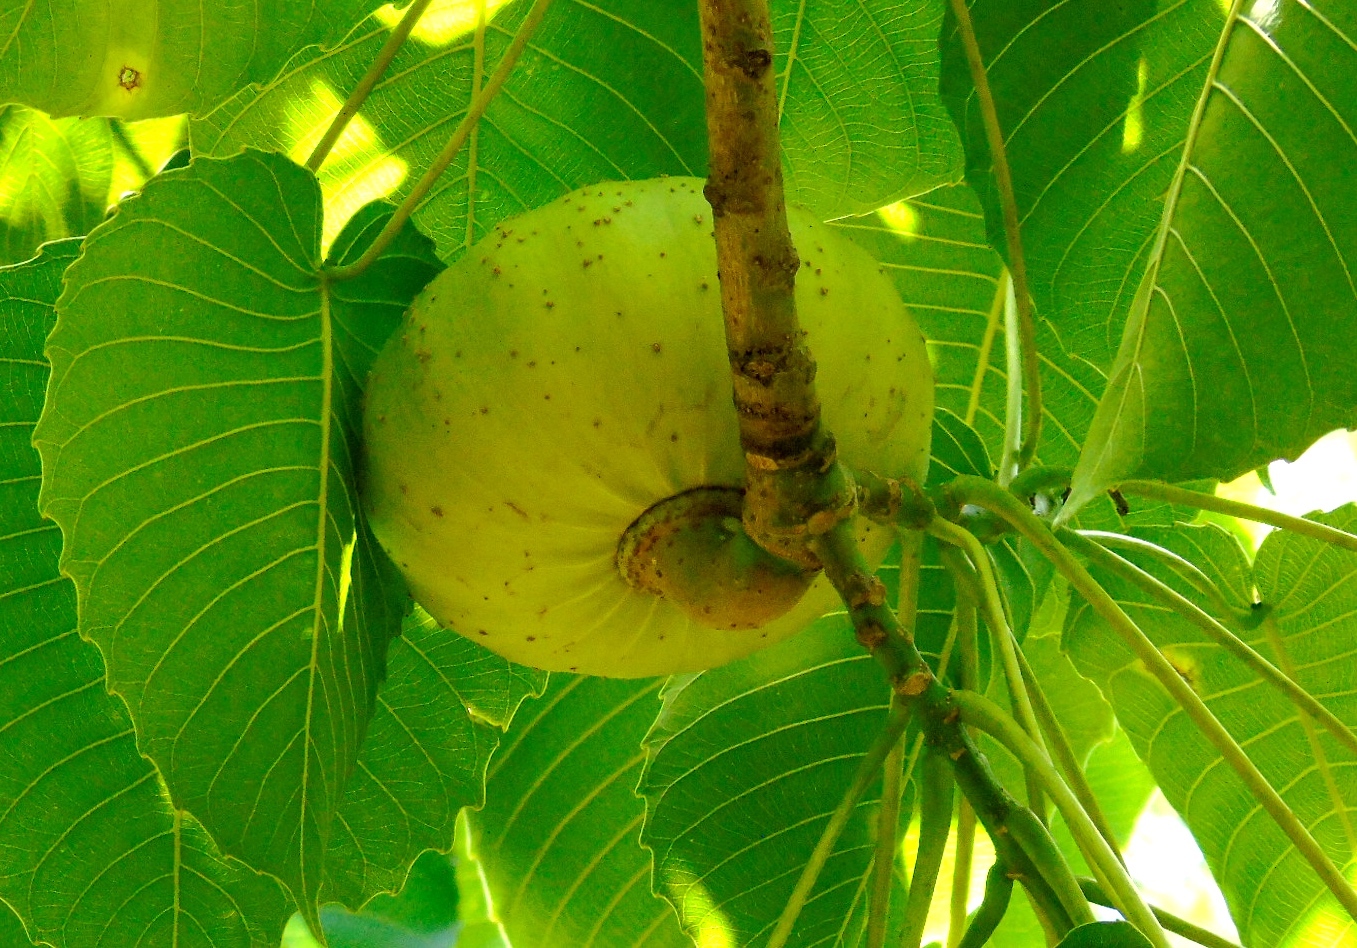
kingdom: Plantae
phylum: Tracheophyta
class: Magnoliopsida
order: Malpighiales
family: Euphorbiaceae
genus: Hura
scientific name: Hura polyandra
